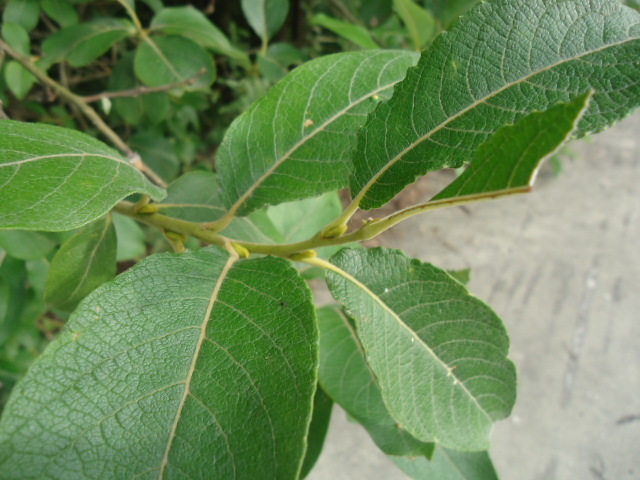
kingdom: Plantae
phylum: Tracheophyta
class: Magnoliopsida
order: Malpighiales
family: Salicaceae
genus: Salix
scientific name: Salix caprea
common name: Goat willow
